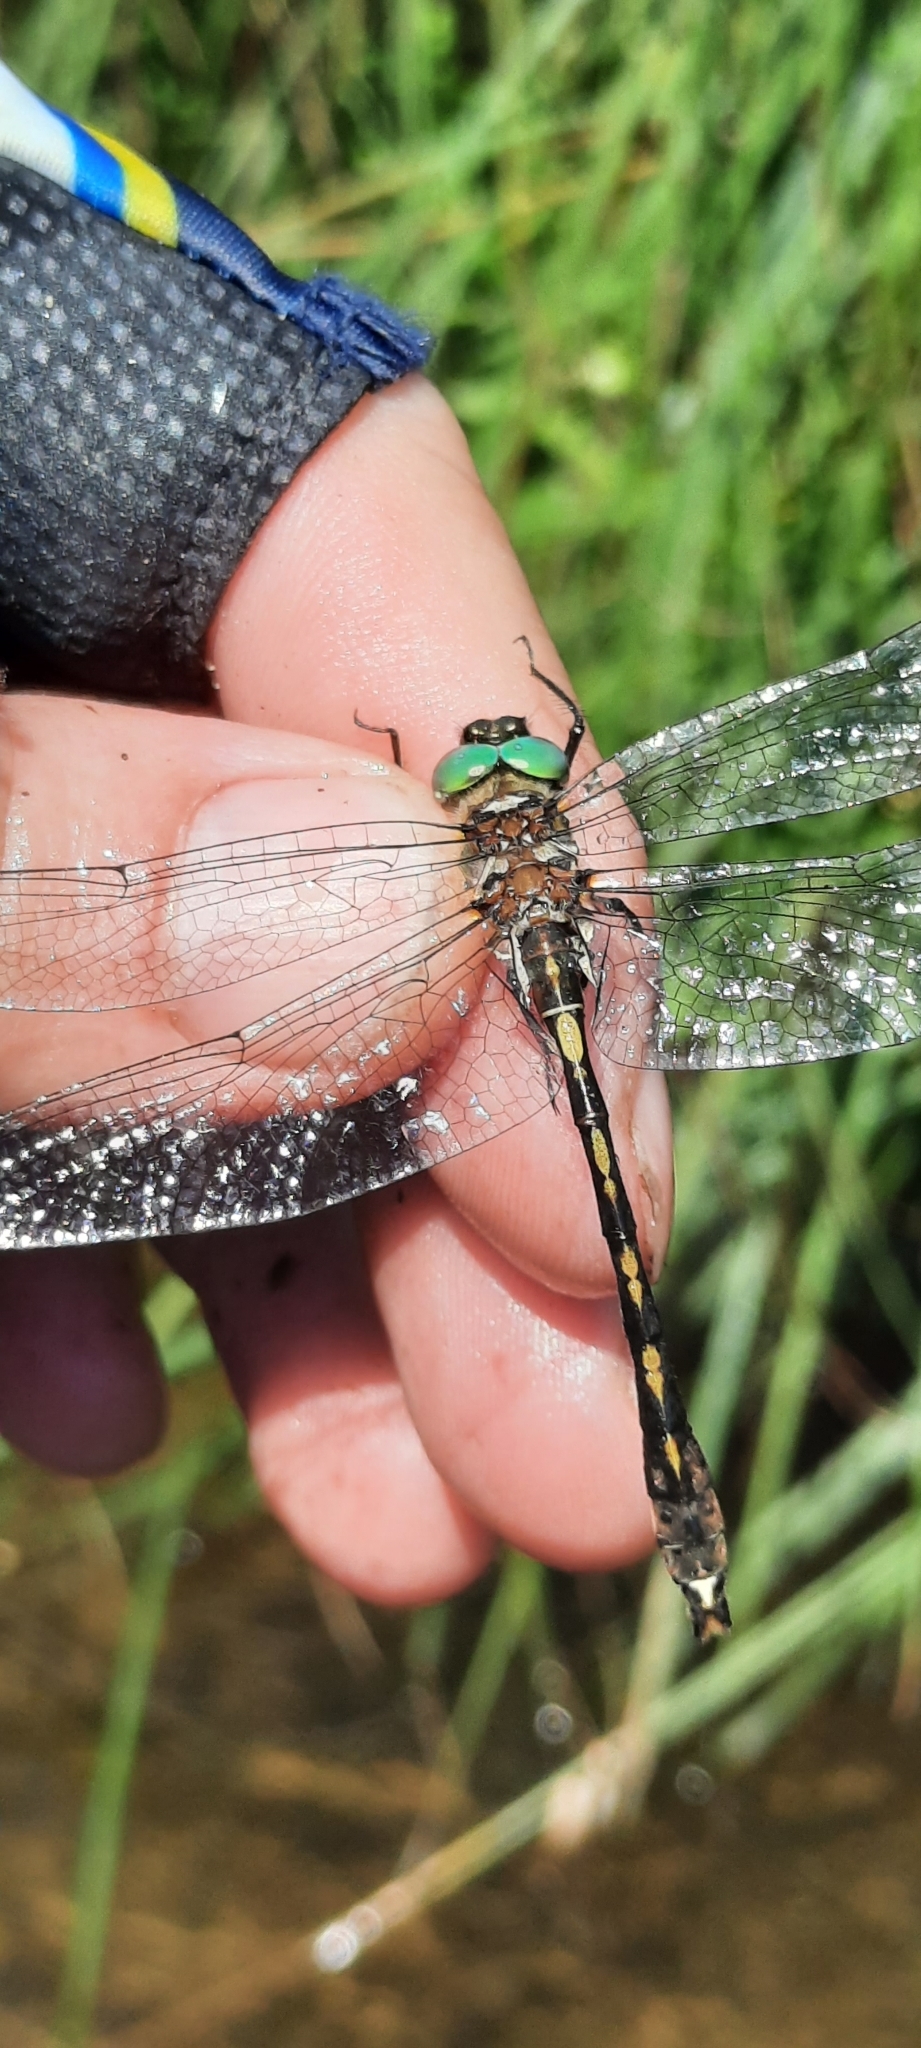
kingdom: Animalia
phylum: Arthropoda
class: Insecta
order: Odonata
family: Corduliidae
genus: Oxygastra
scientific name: Oxygastra curtisii
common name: Orange-spotted emerald
